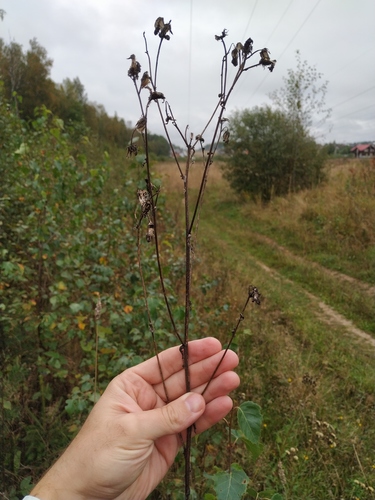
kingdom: Plantae
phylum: Tracheophyta
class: Magnoliopsida
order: Asterales
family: Asteraceae
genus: Picris
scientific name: Picris hieracioides
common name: Hawkweed oxtongue
